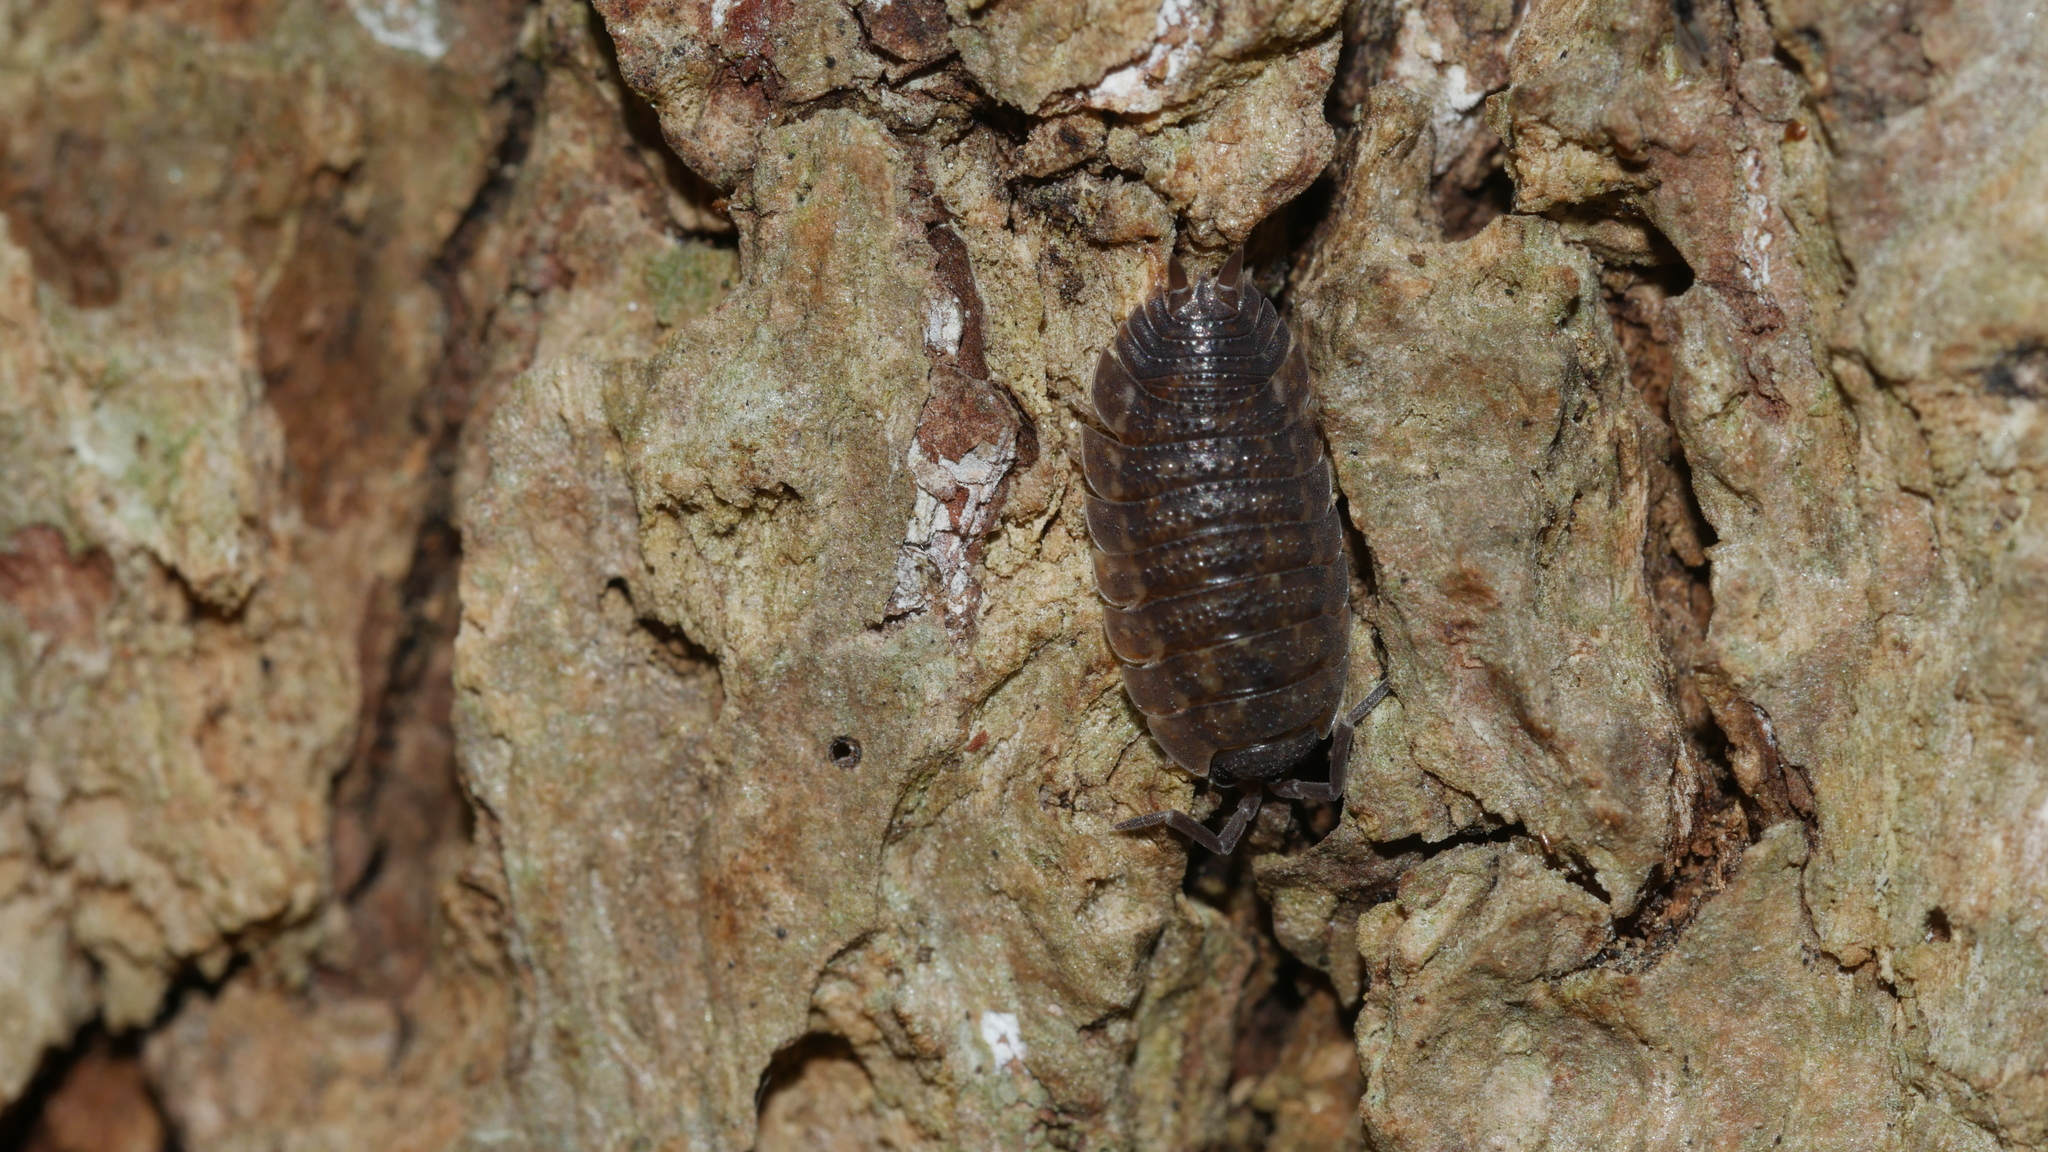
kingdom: Animalia
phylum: Arthropoda
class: Malacostraca
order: Isopoda
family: Porcellionidae
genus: Porcellio
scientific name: Porcellio scaber
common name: Common rough woodlouse
